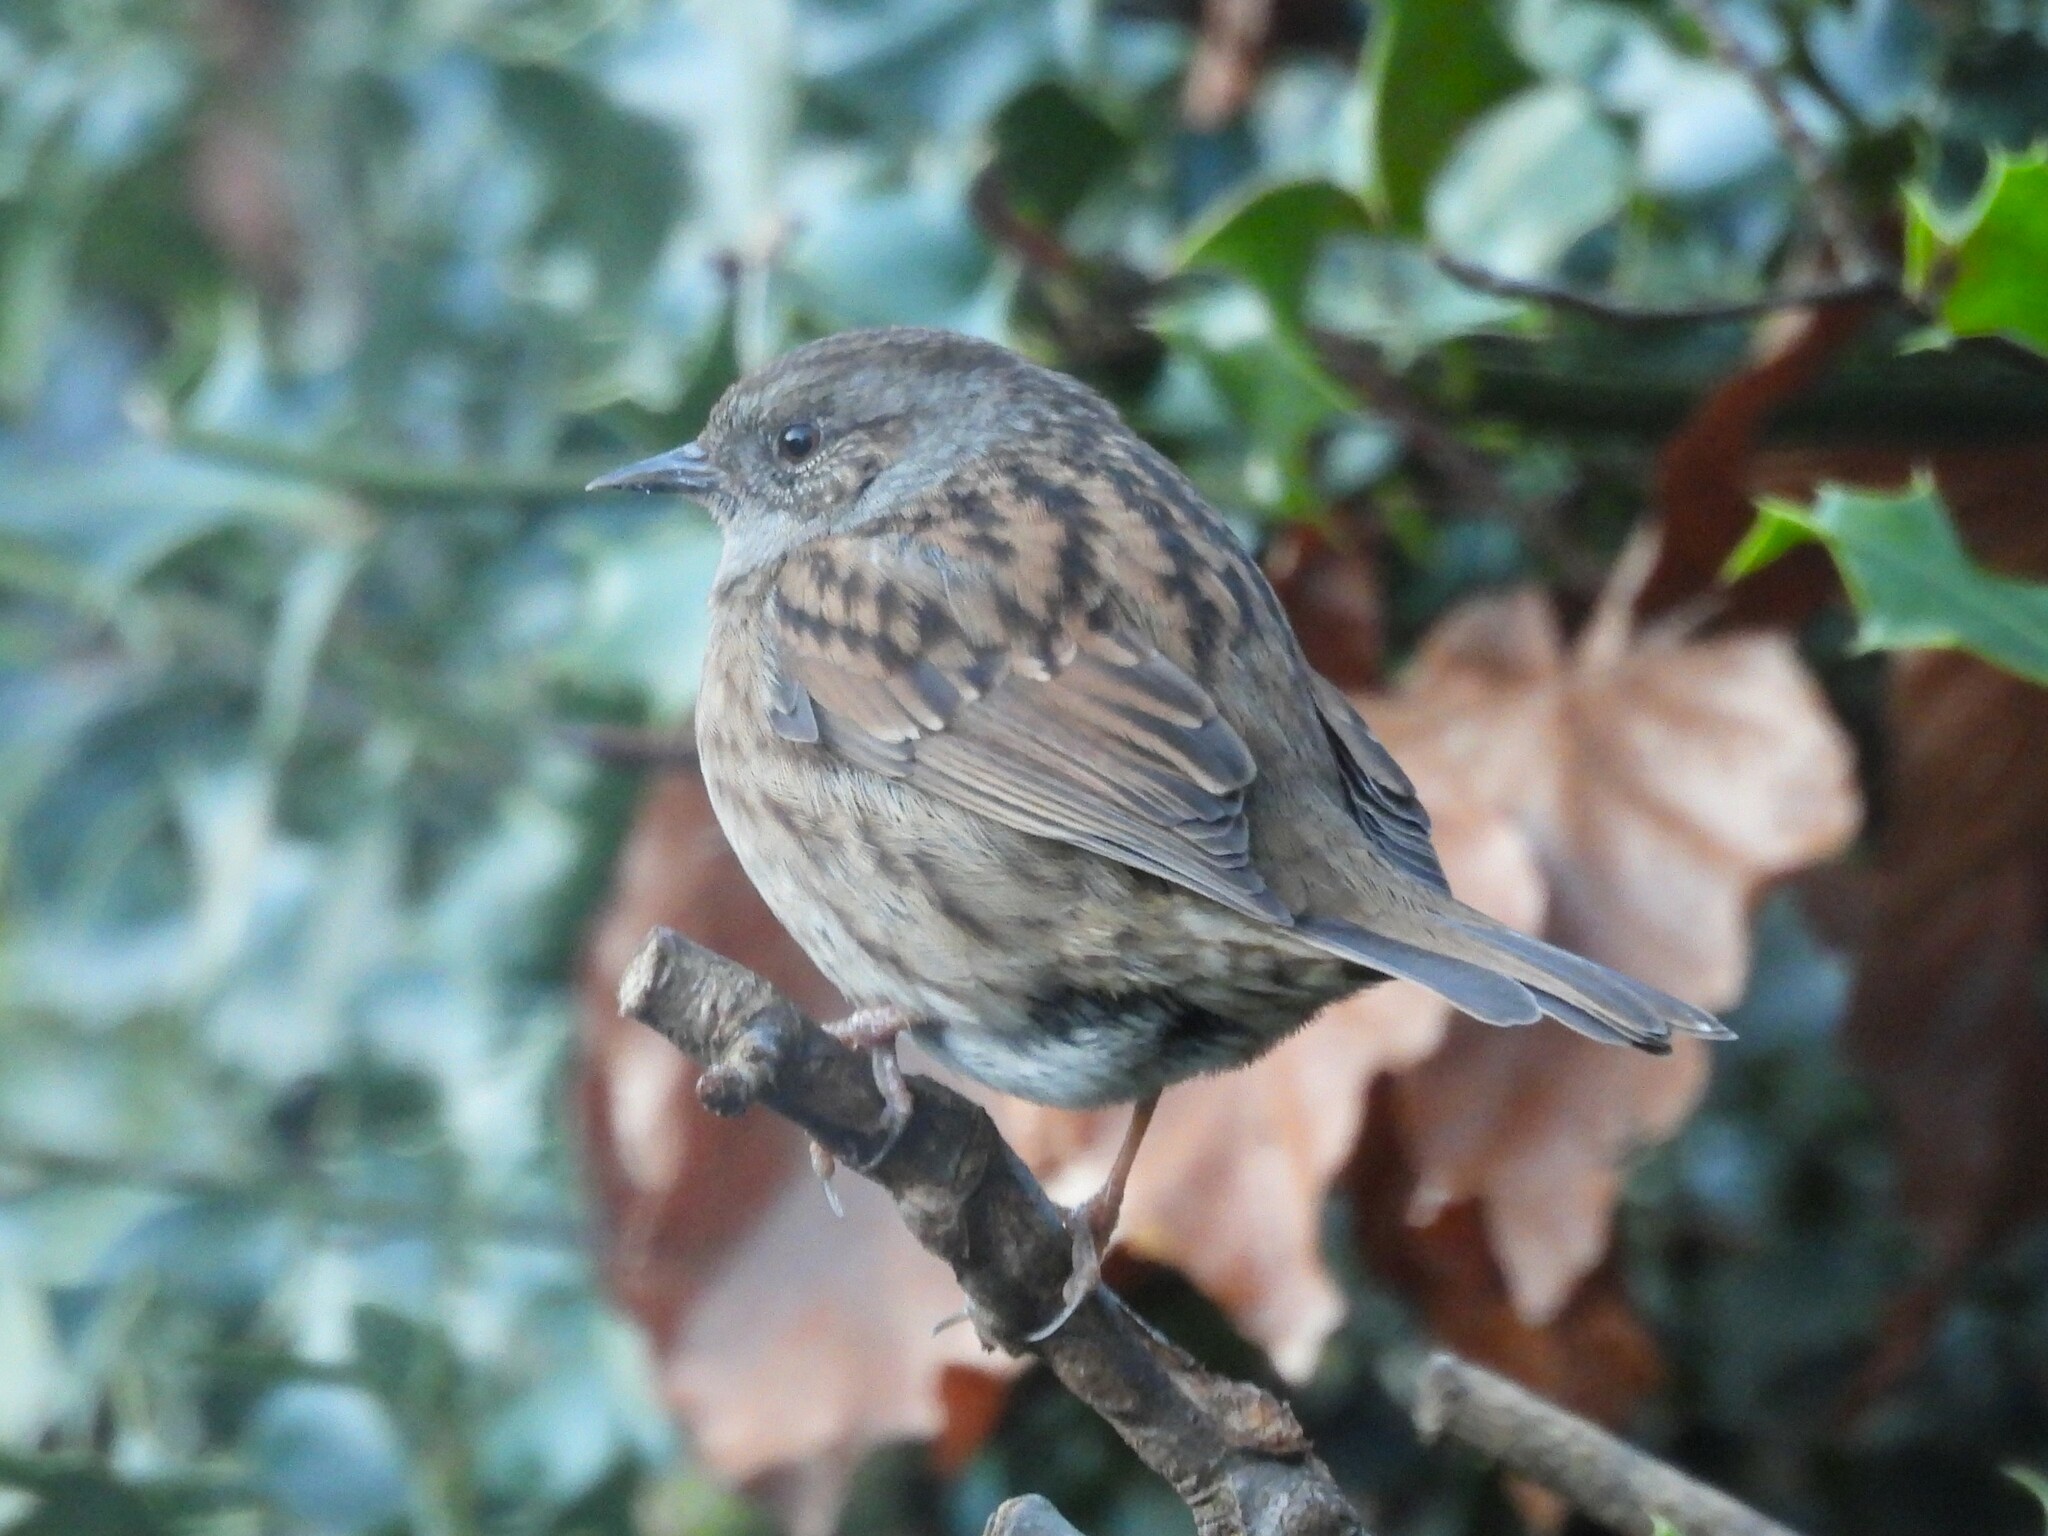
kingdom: Animalia
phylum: Chordata
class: Aves
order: Passeriformes
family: Prunellidae
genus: Prunella
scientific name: Prunella modularis
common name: Dunnock
